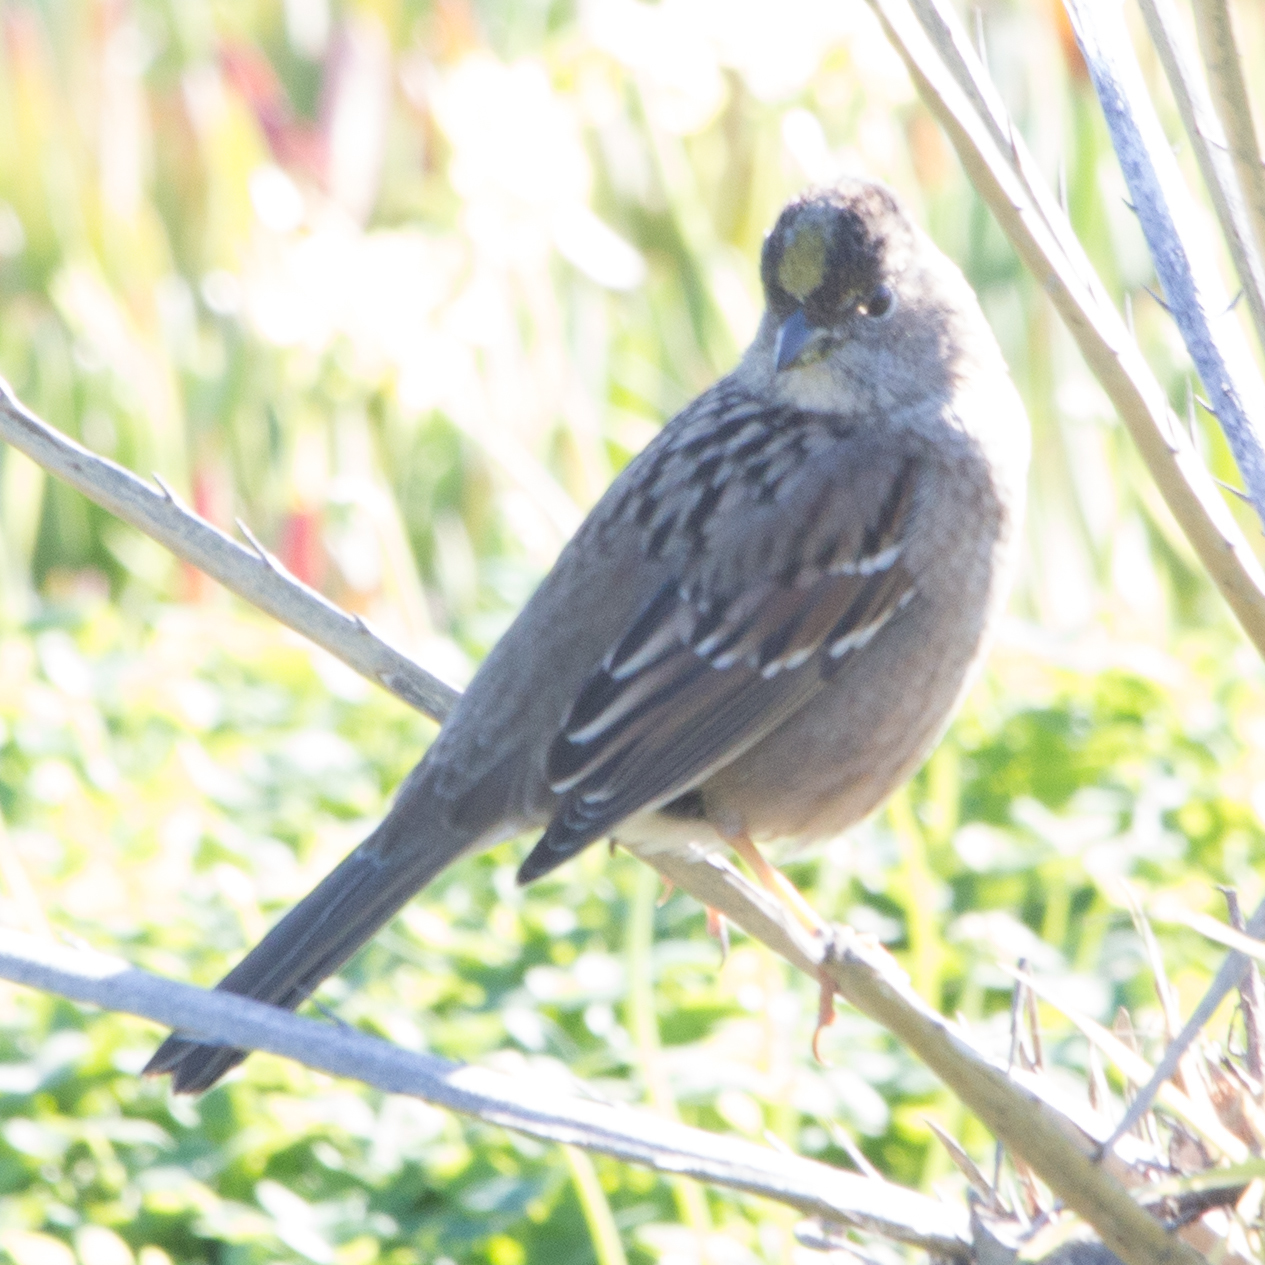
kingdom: Animalia
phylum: Chordata
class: Aves
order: Passeriformes
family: Passerellidae
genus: Zonotrichia
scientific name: Zonotrichia atricapilla
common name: Golden-crowned sparrow
